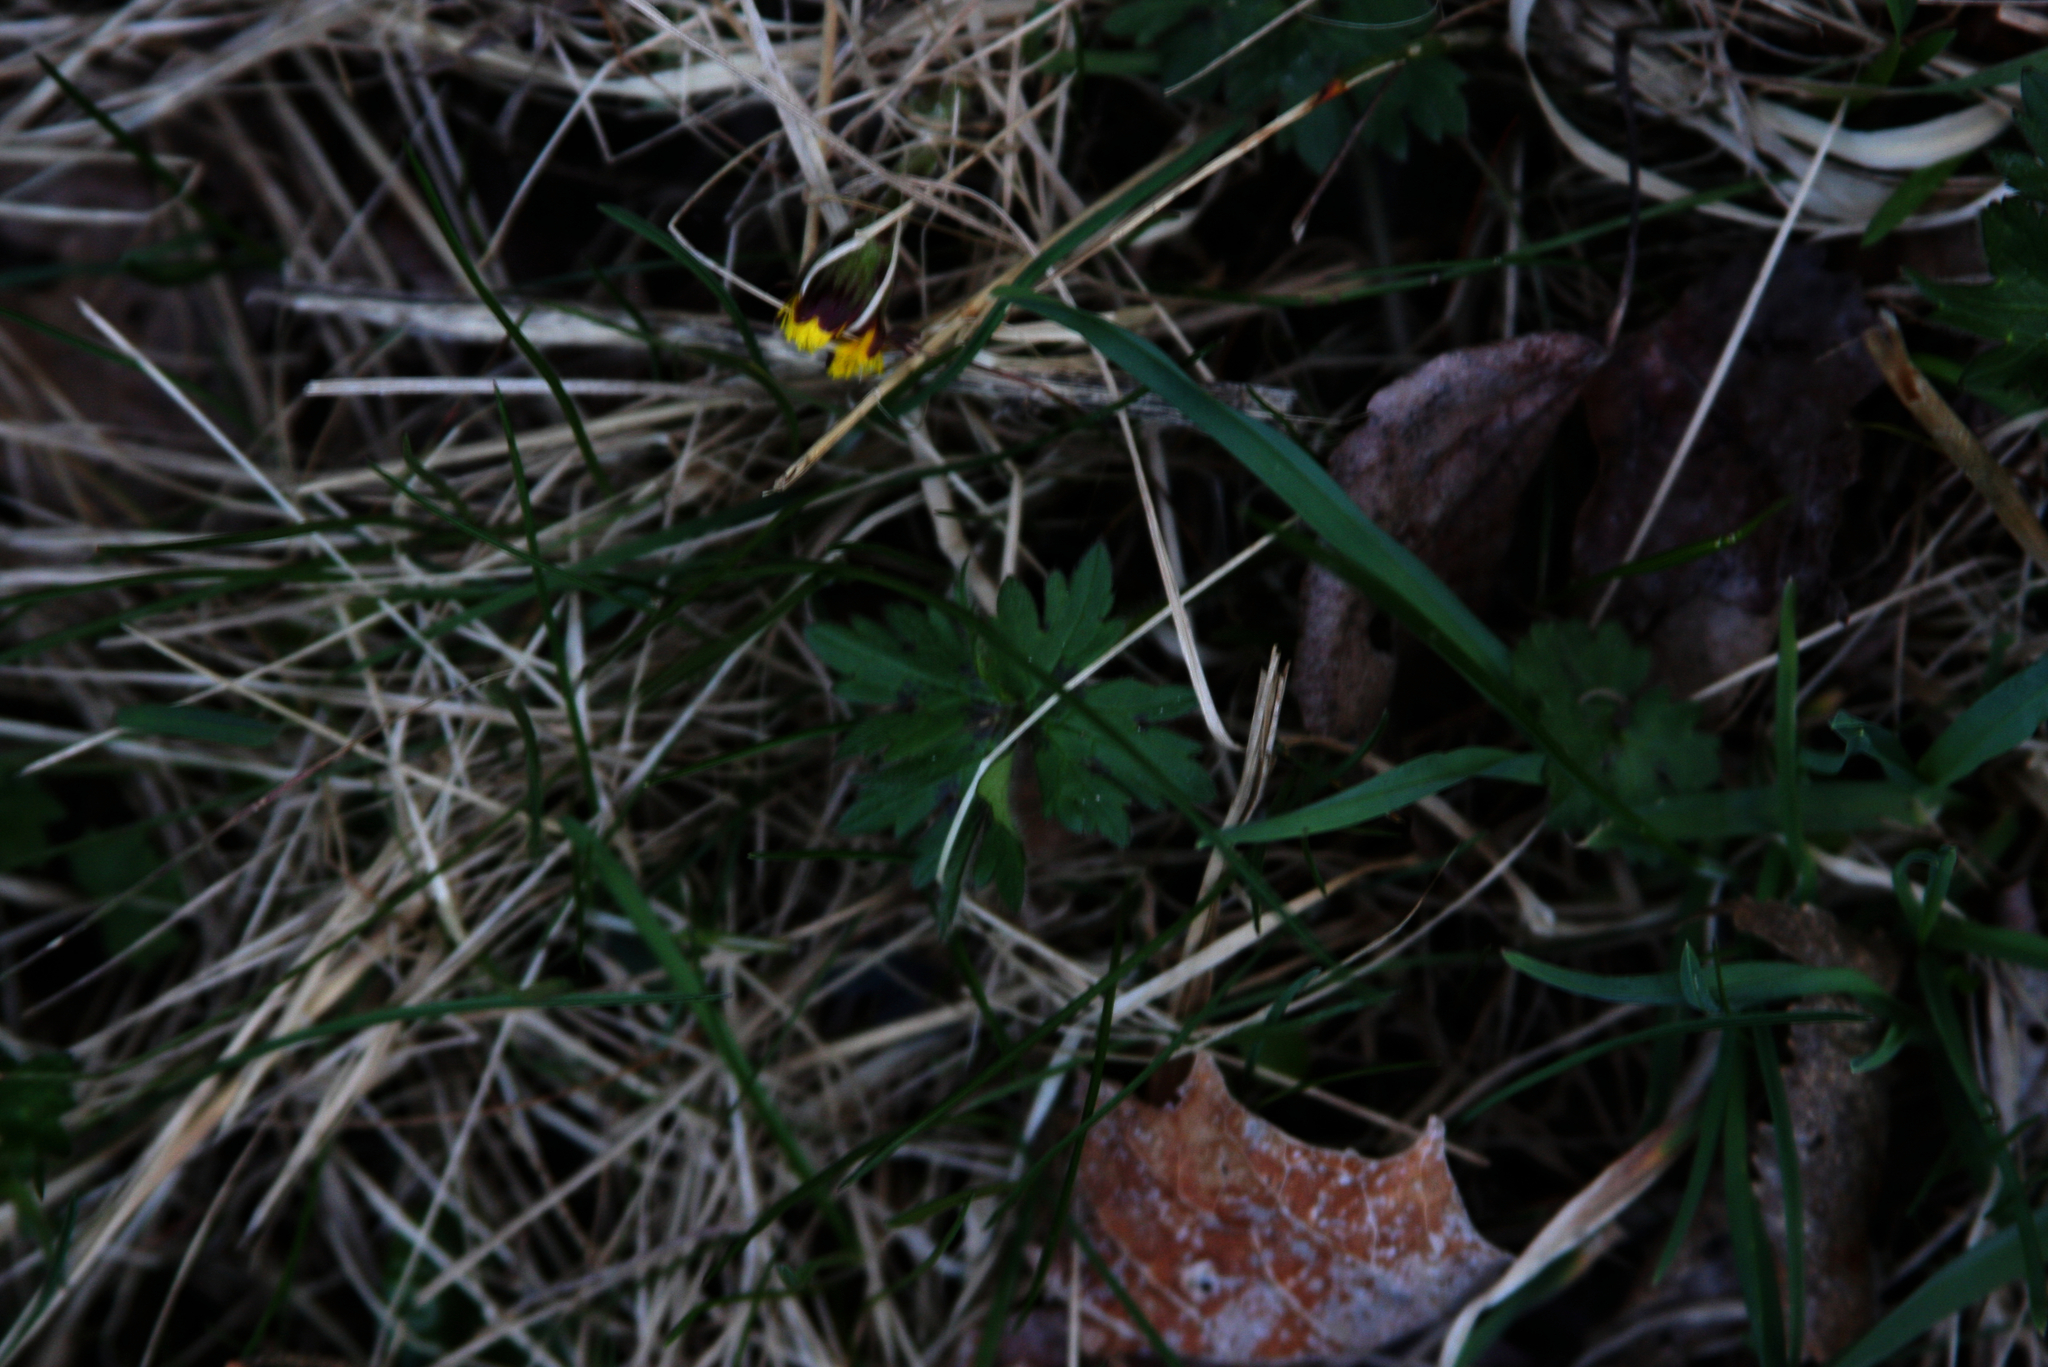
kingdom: Plantae
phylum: Tracheophyta
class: Magnoliopsida
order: Ranunculales
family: Ranunculaceae
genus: Ranunculus
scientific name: Ranunculus repens
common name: Creeping buttercup
